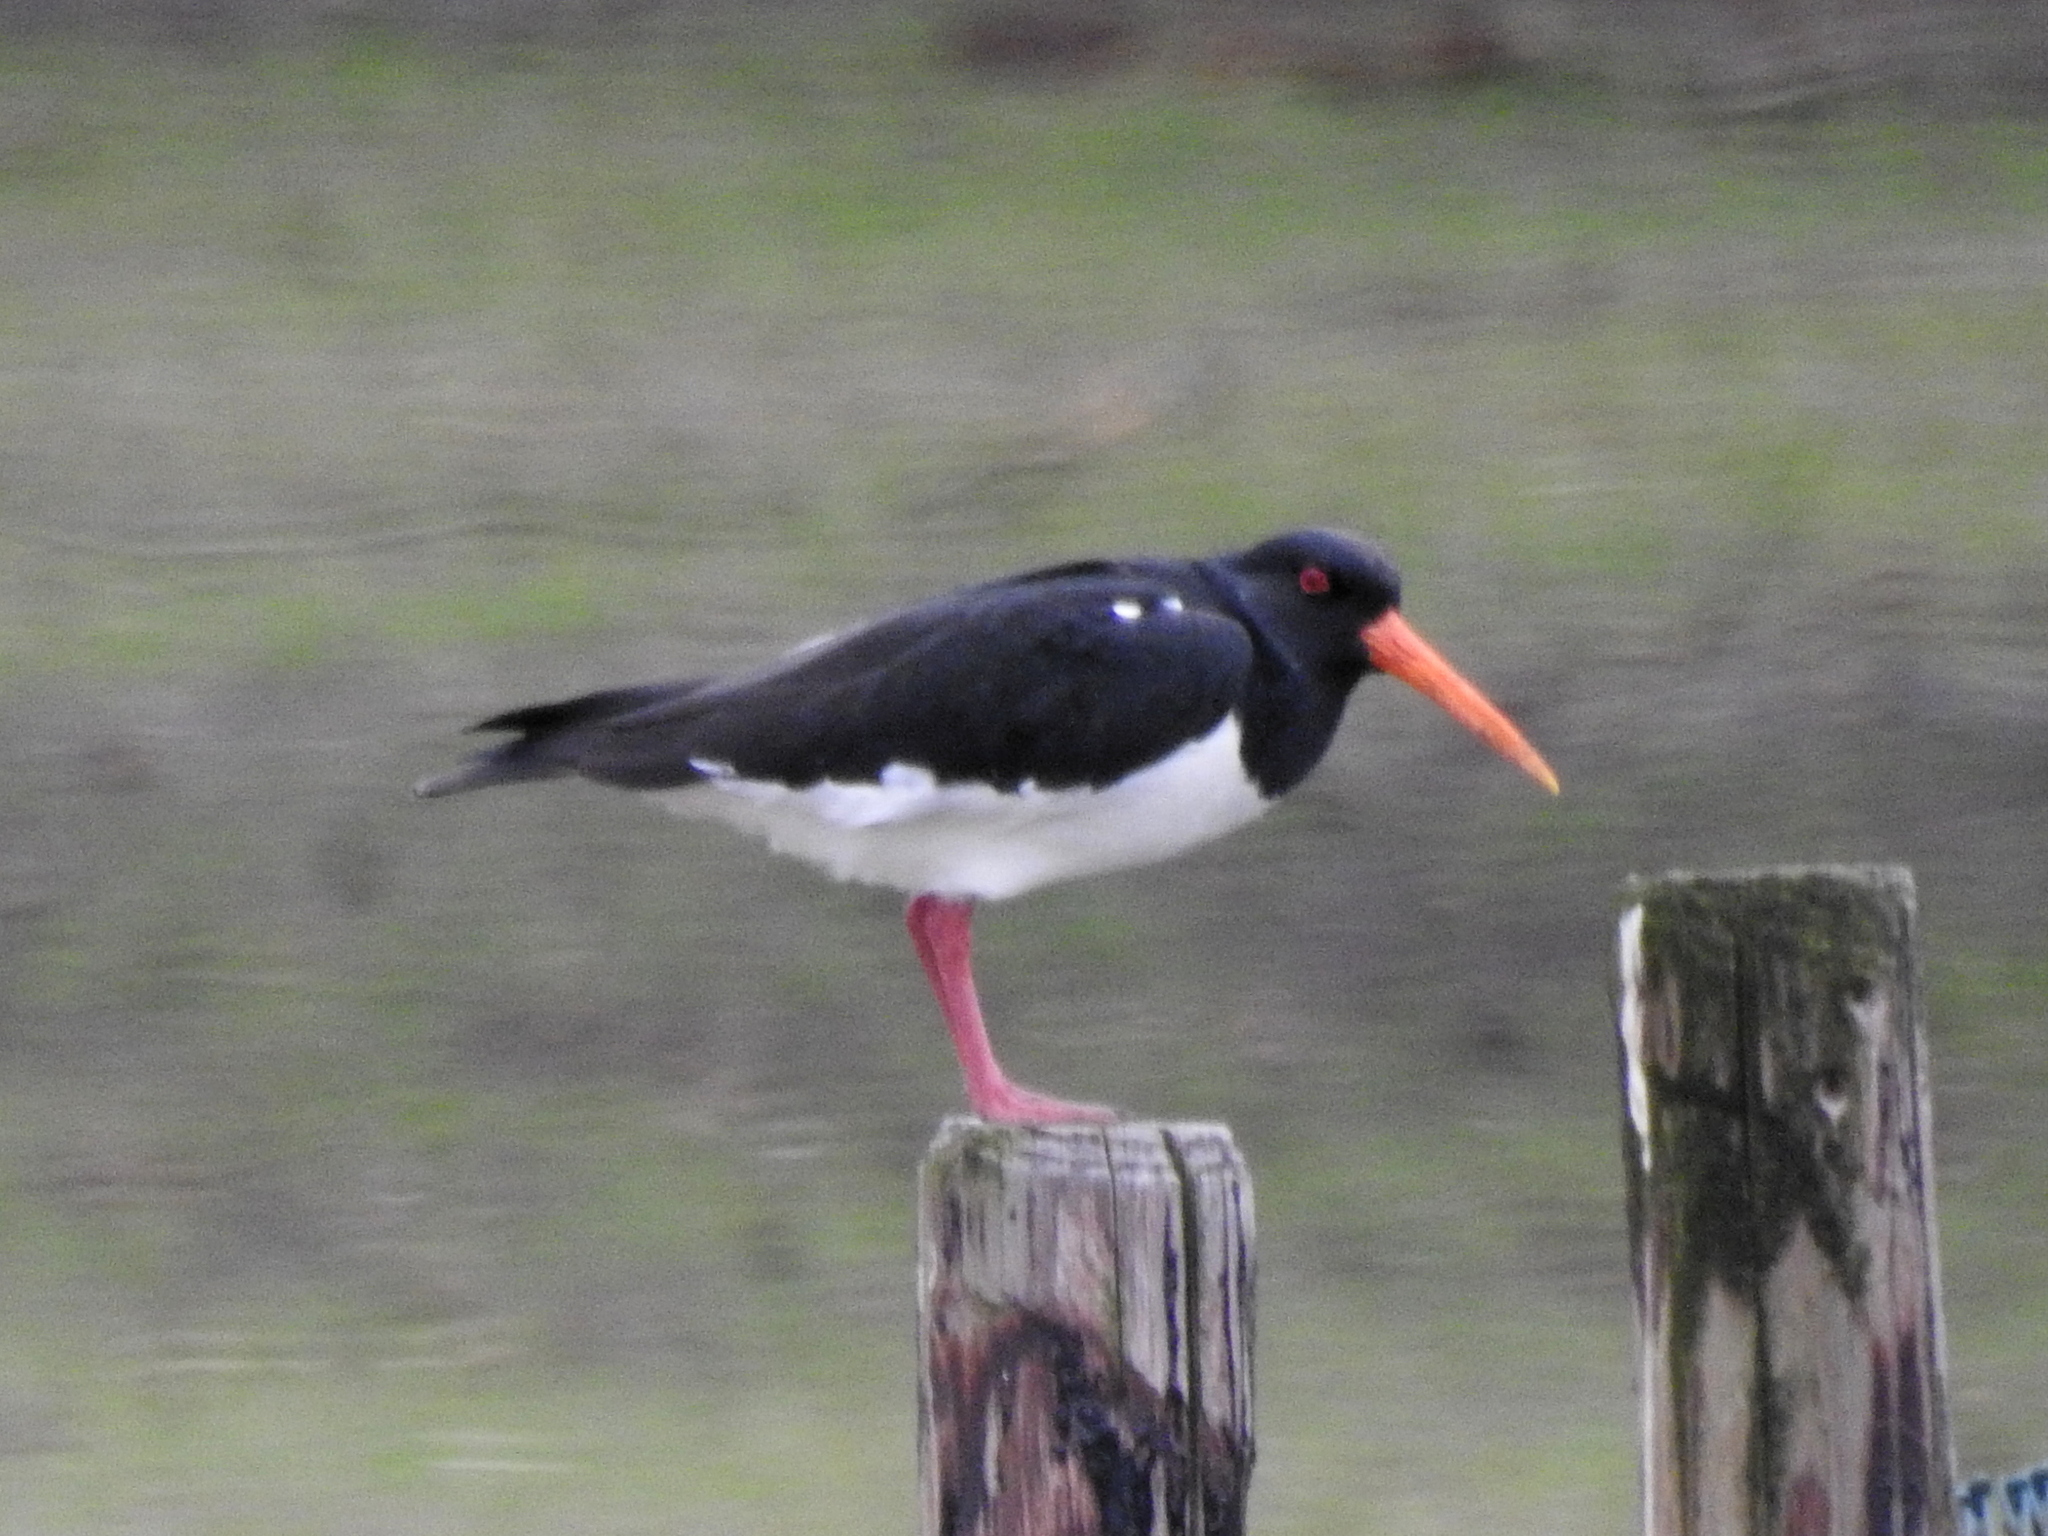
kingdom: Animalia
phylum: Chordata
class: Aves
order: Charadriiformes
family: Haematopodidae
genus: Haematopus
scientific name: Haematopus ostralegus
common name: Eurasian oystercatcher
